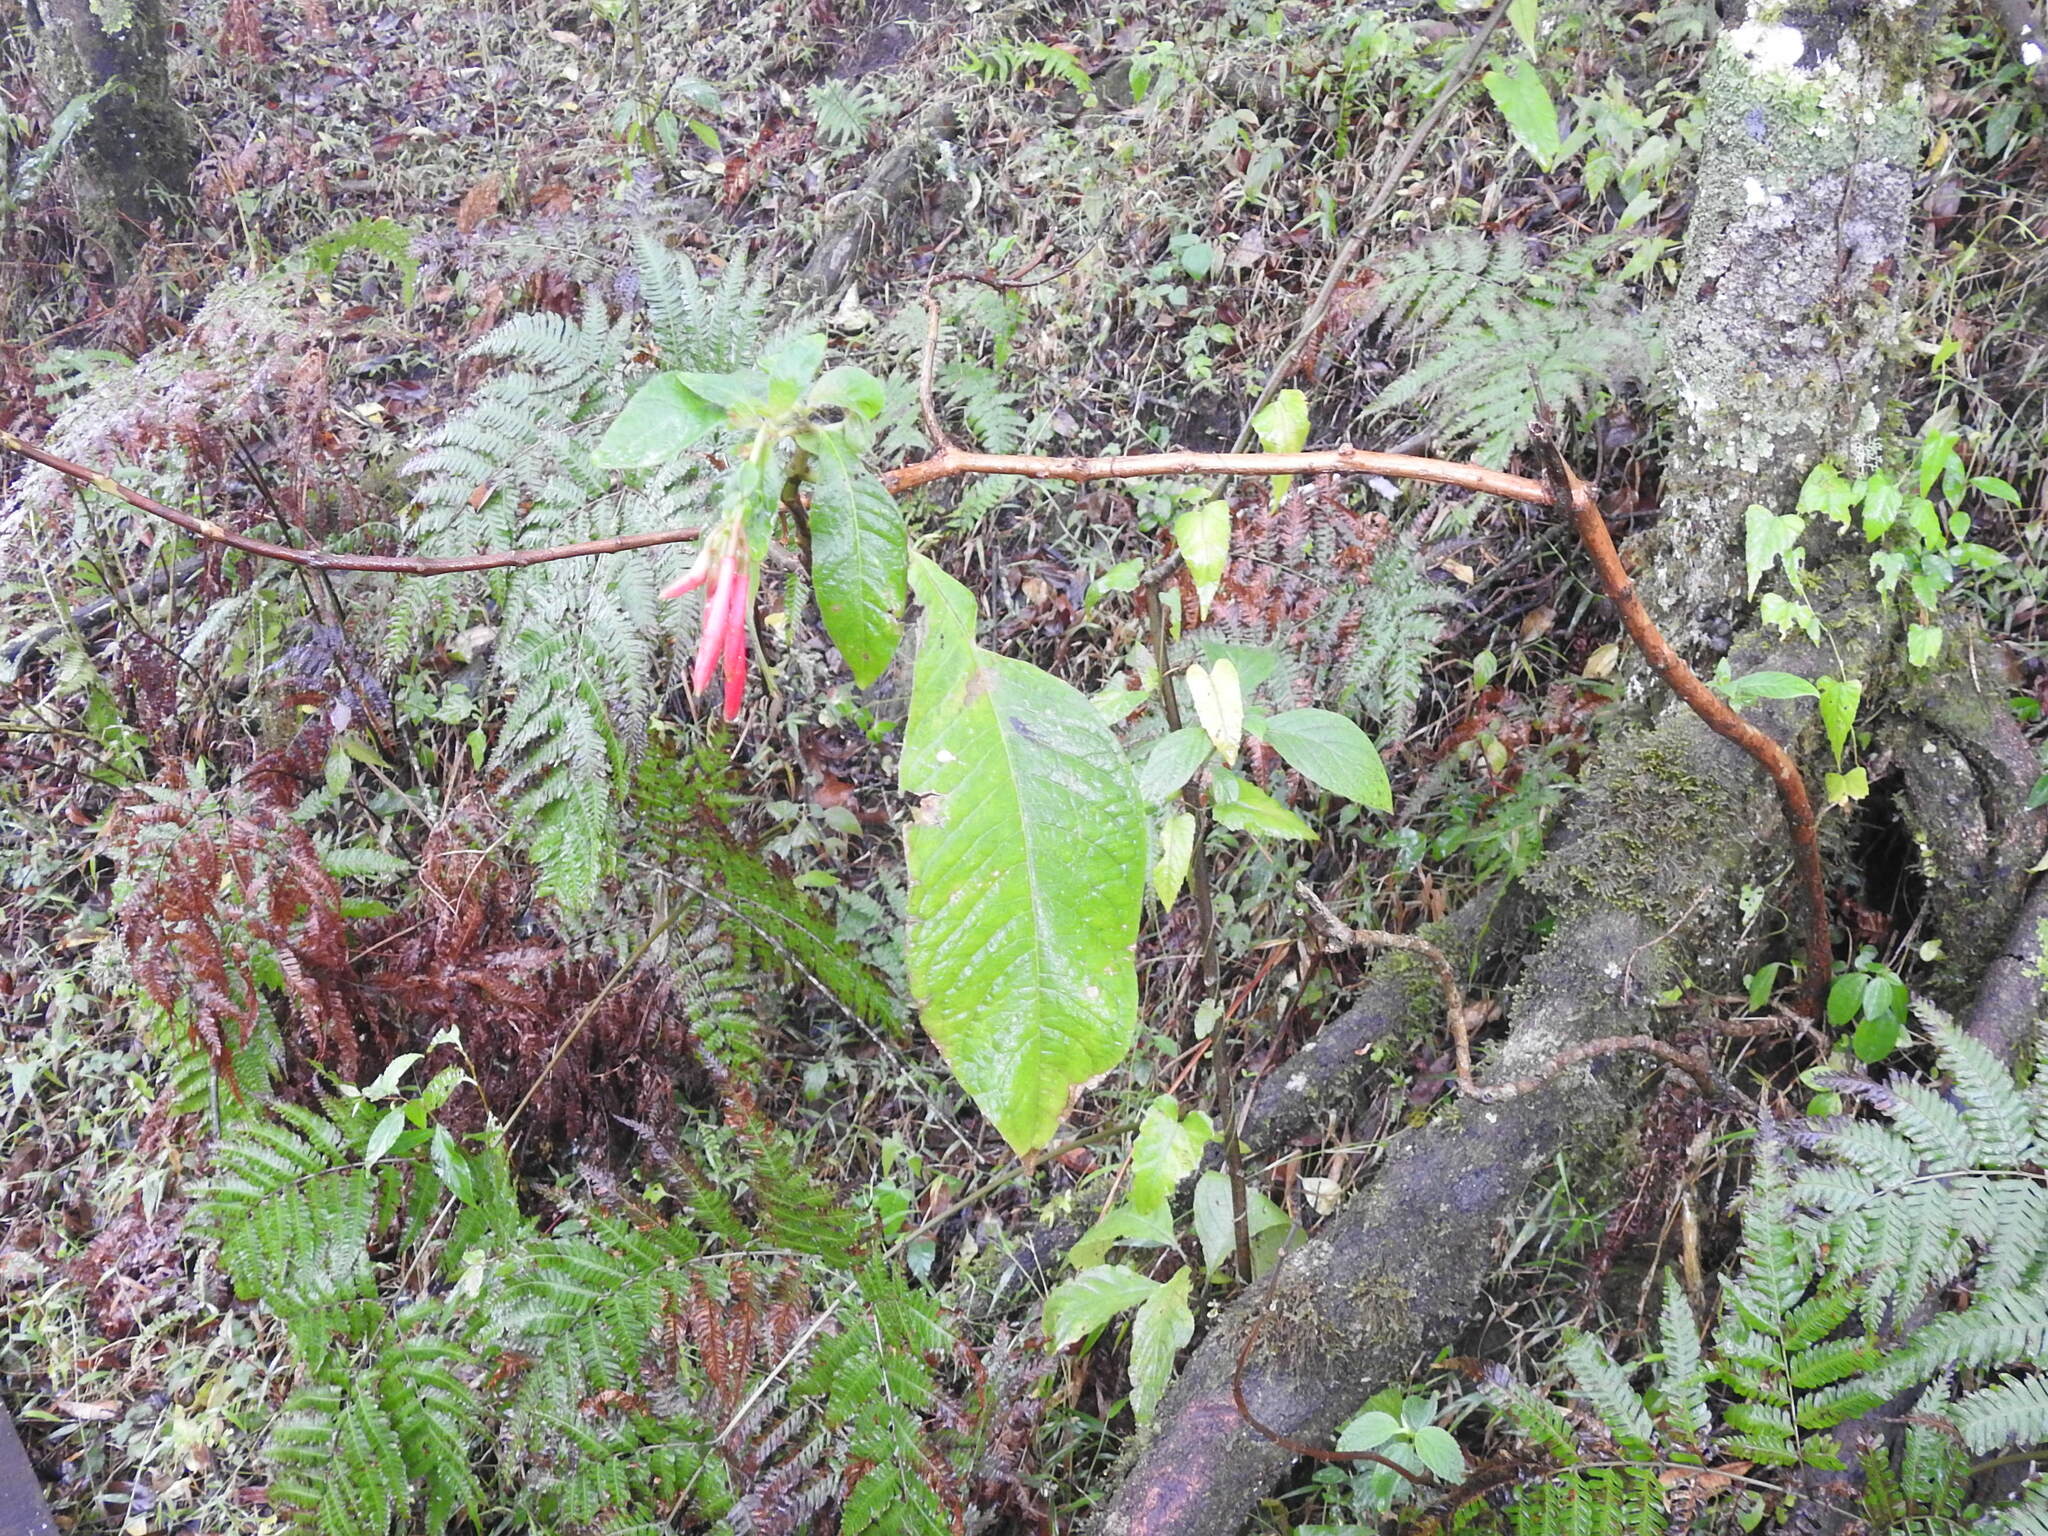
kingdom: Plantae
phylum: Tracheophyta
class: Magnoliopsida
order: Myrtales
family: Onagraceae
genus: Fuchsia
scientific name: Fuchsia boliviana
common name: Bolivian fuchsia
